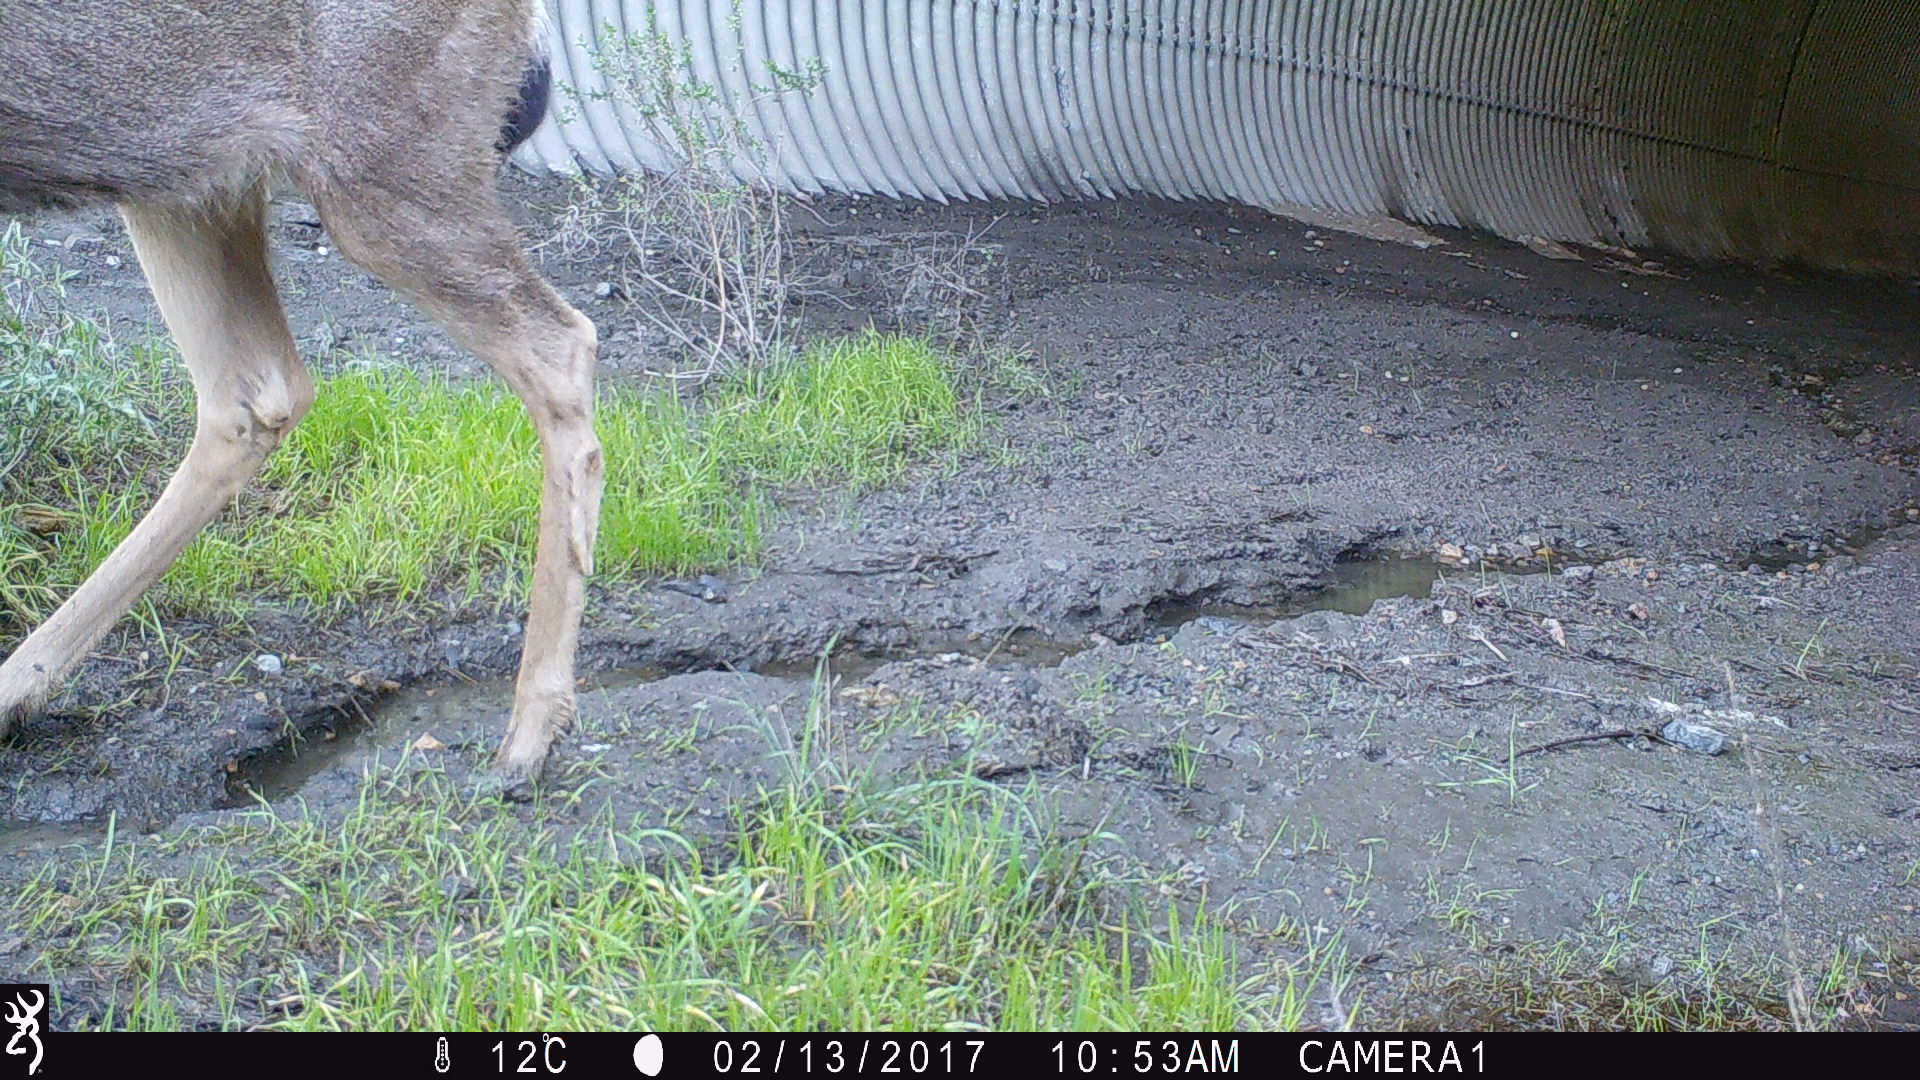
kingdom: Animalia
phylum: Chordata
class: Mammalia
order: Artiodactyla
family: Cervidae
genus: Odocoileus
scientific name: Odocoileus hemionus
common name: Mule deer
